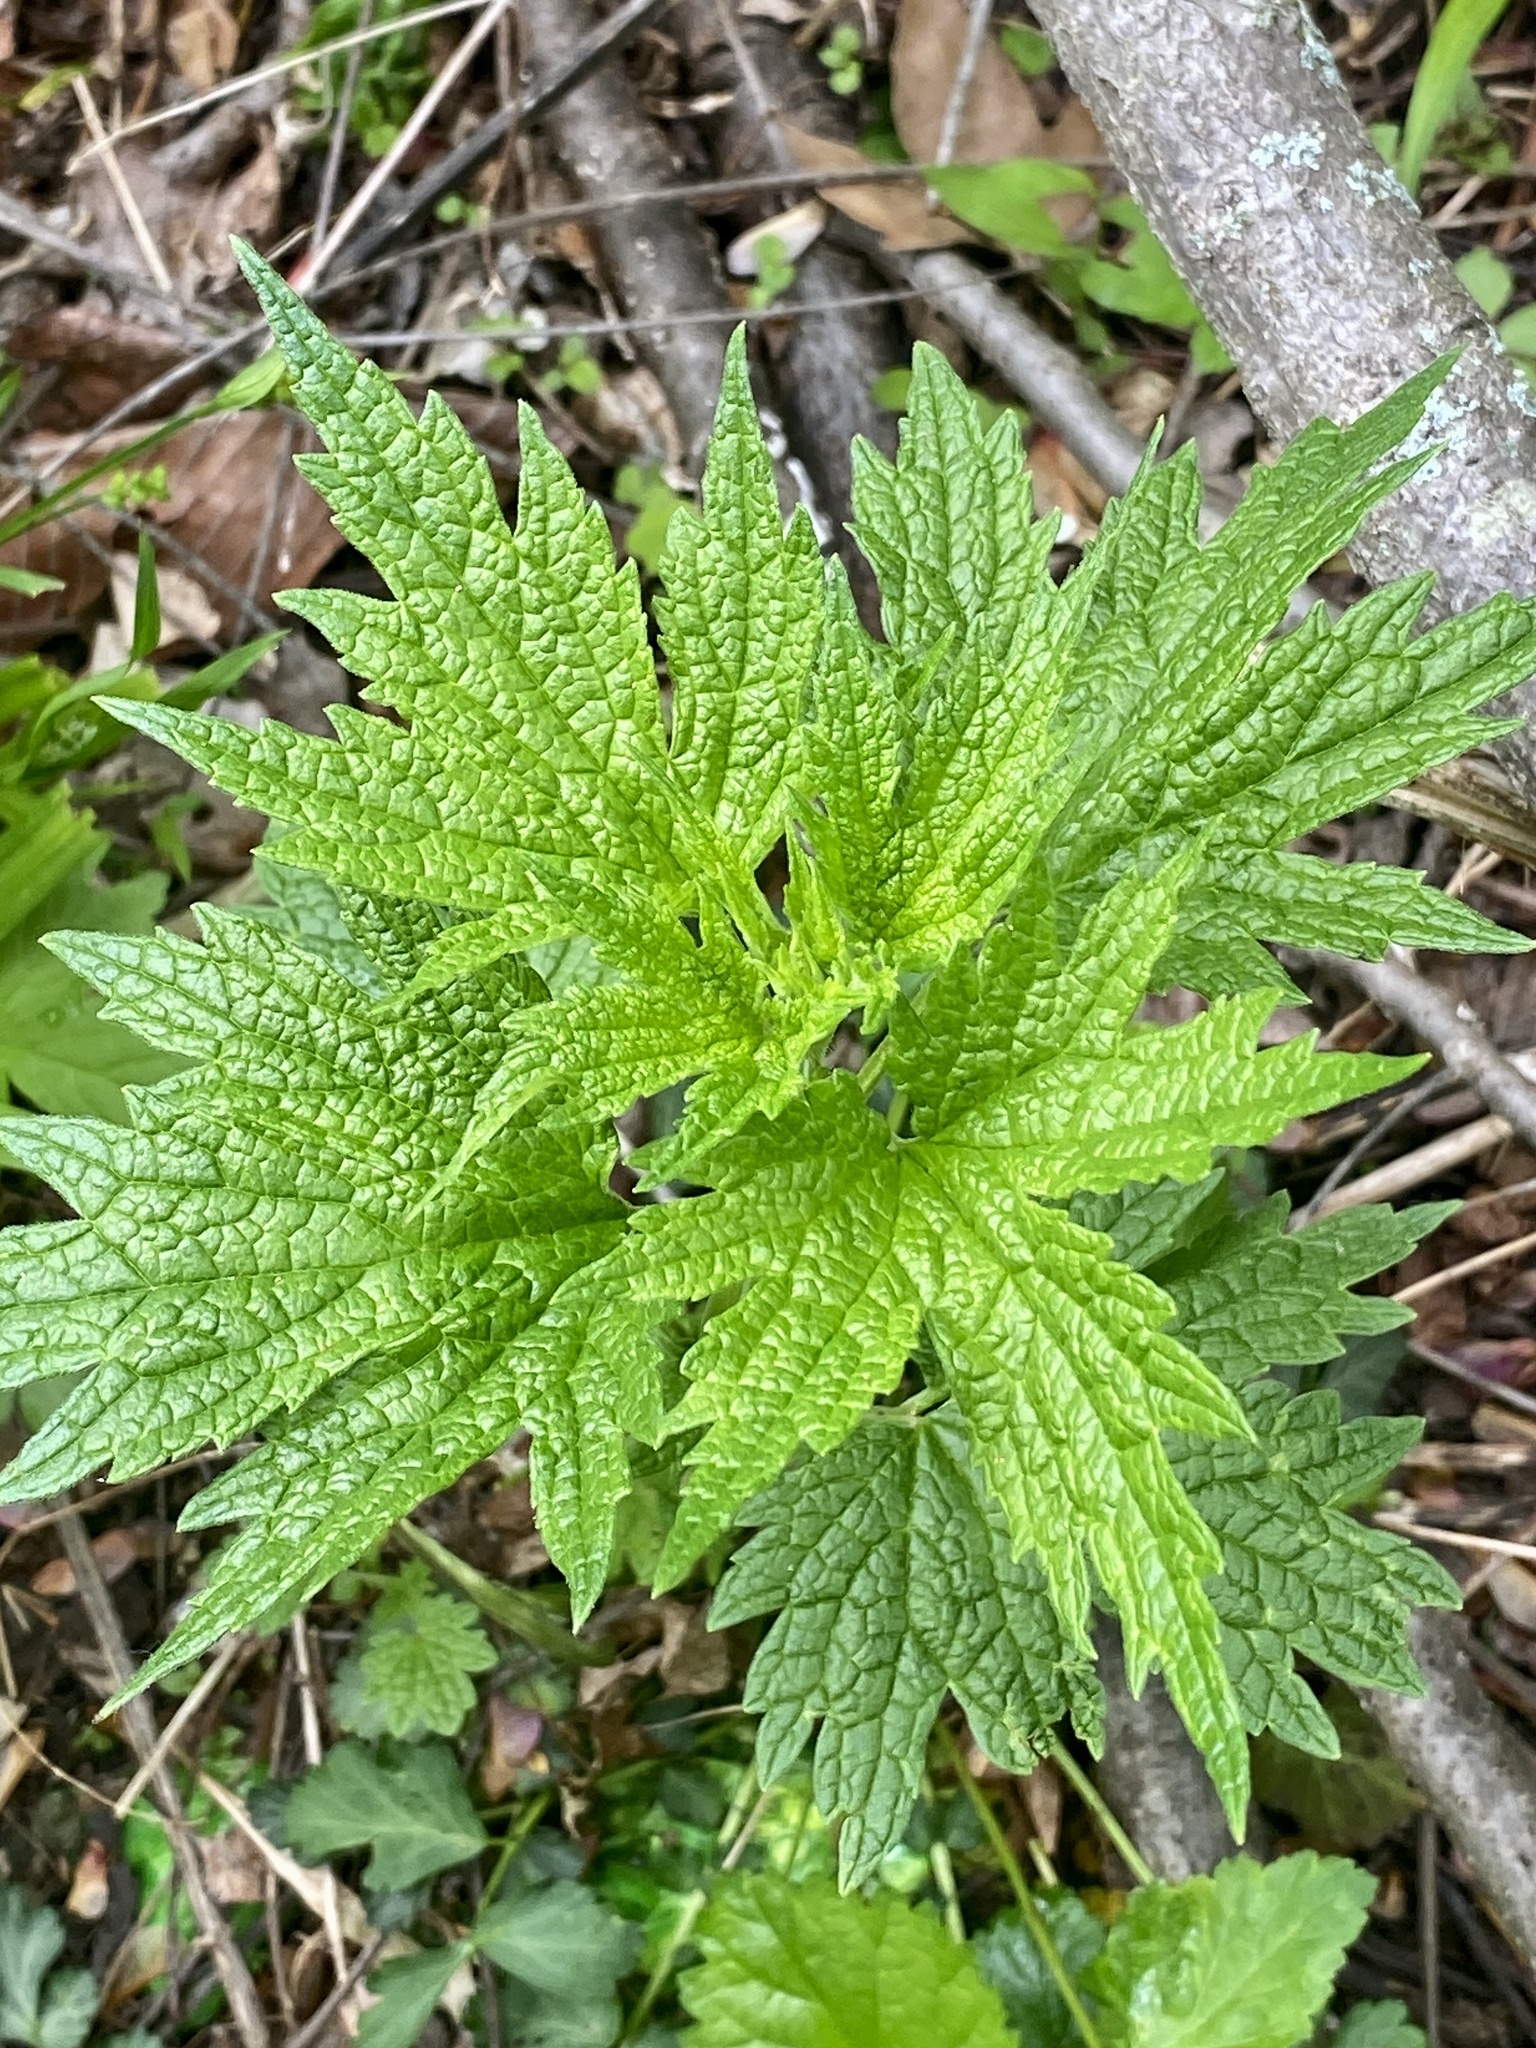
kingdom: Plantae
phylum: Tracheophyta
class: Magnoliopsida
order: Lamiales
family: Lamiaceae
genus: Leonurus
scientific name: Leonurus cardiaca
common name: Motherwort
